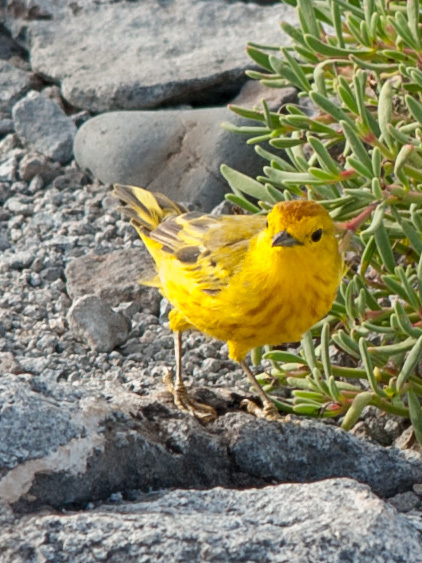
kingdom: Animalia
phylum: Chordata
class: Aves
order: Passeriformes
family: Parulidae
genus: Setophaga
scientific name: Setophaga petechia
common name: Yellow warbler
